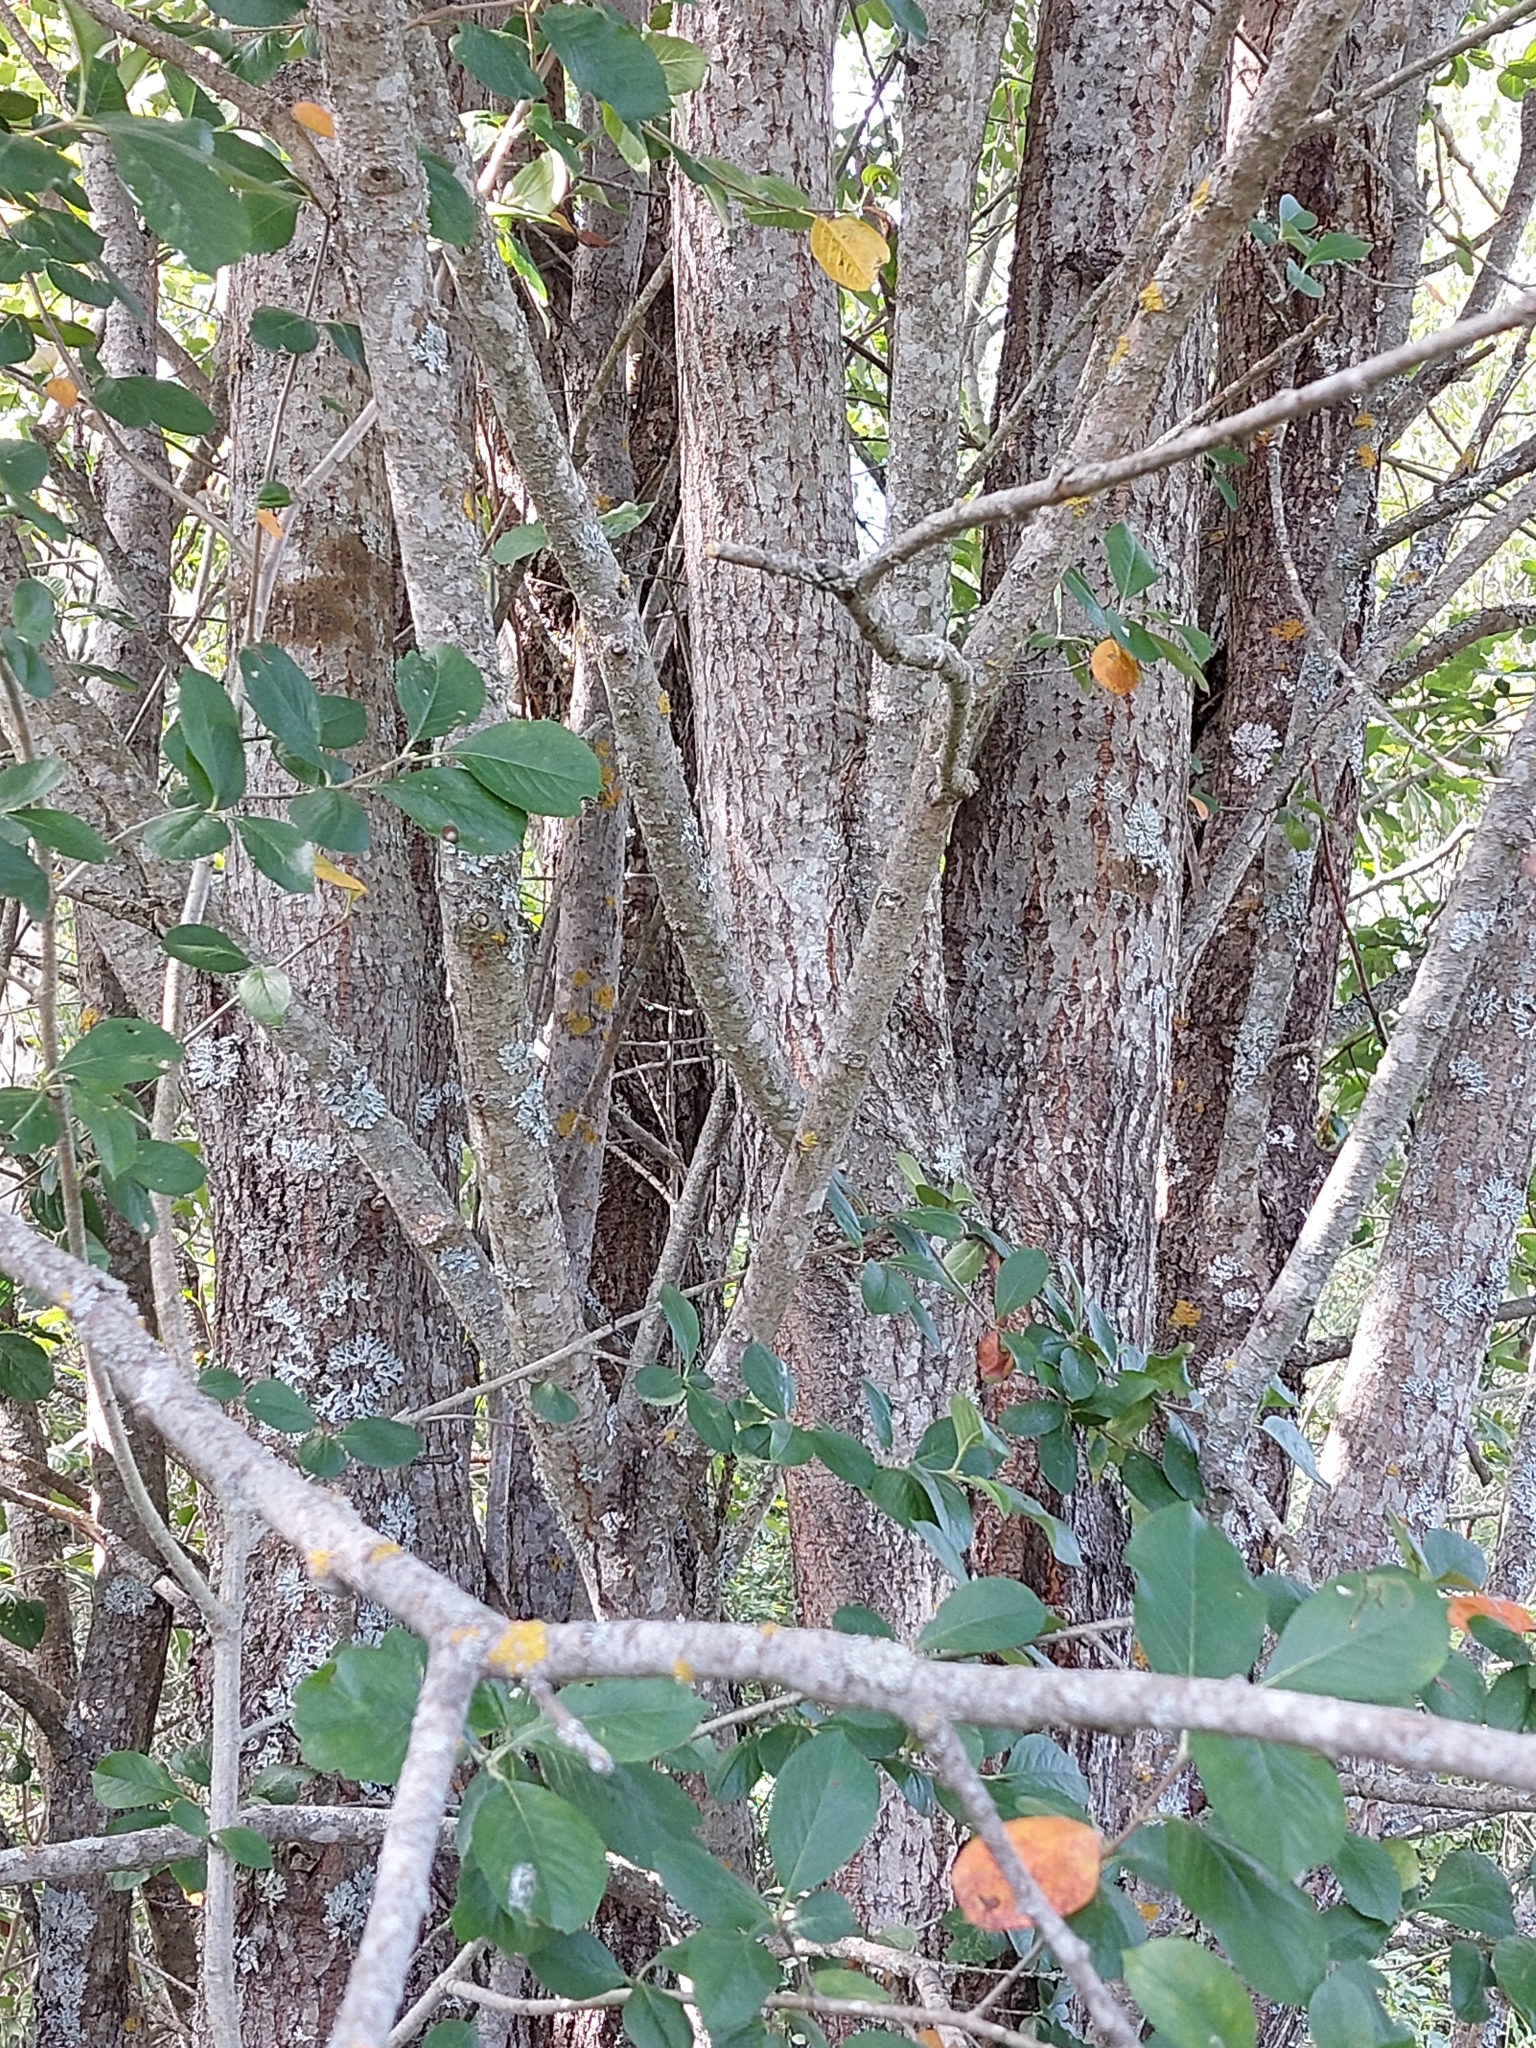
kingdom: Plantae
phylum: Tracheophyta
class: Magnoliopsida
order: Malpighiales
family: Salicaceae
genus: Salix
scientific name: Salix caprea
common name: Goat willow
